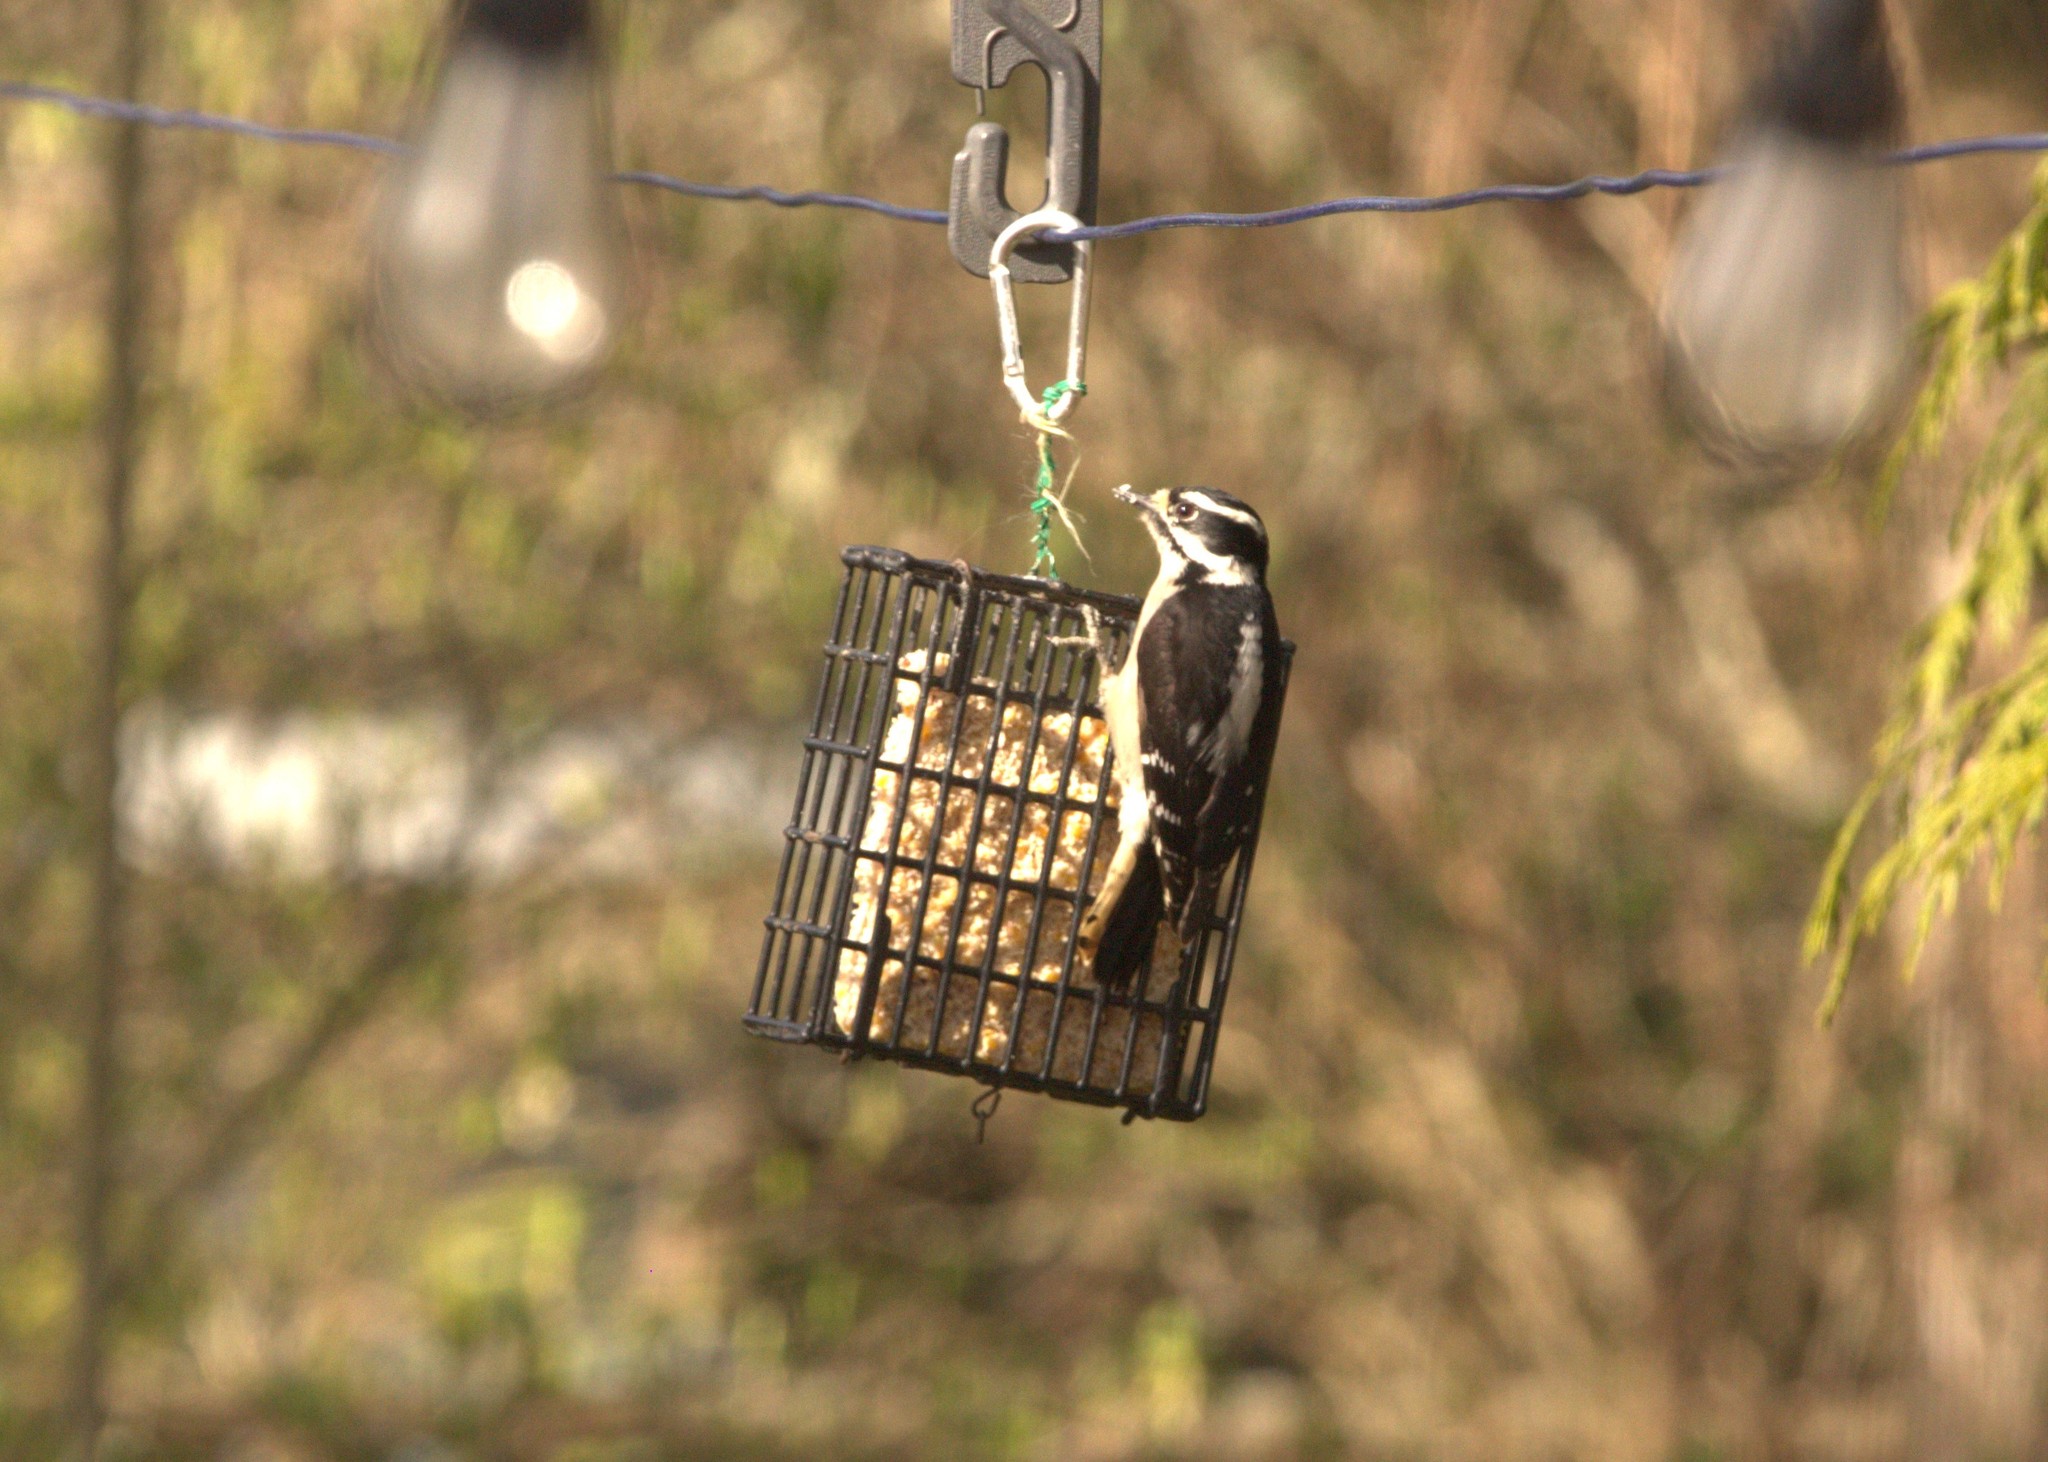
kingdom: Animalia
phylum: Chordata
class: Aves
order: Piciformes
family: Picidae
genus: Dryobates
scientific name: Dryobates pubescens
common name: Downy woodpecker
